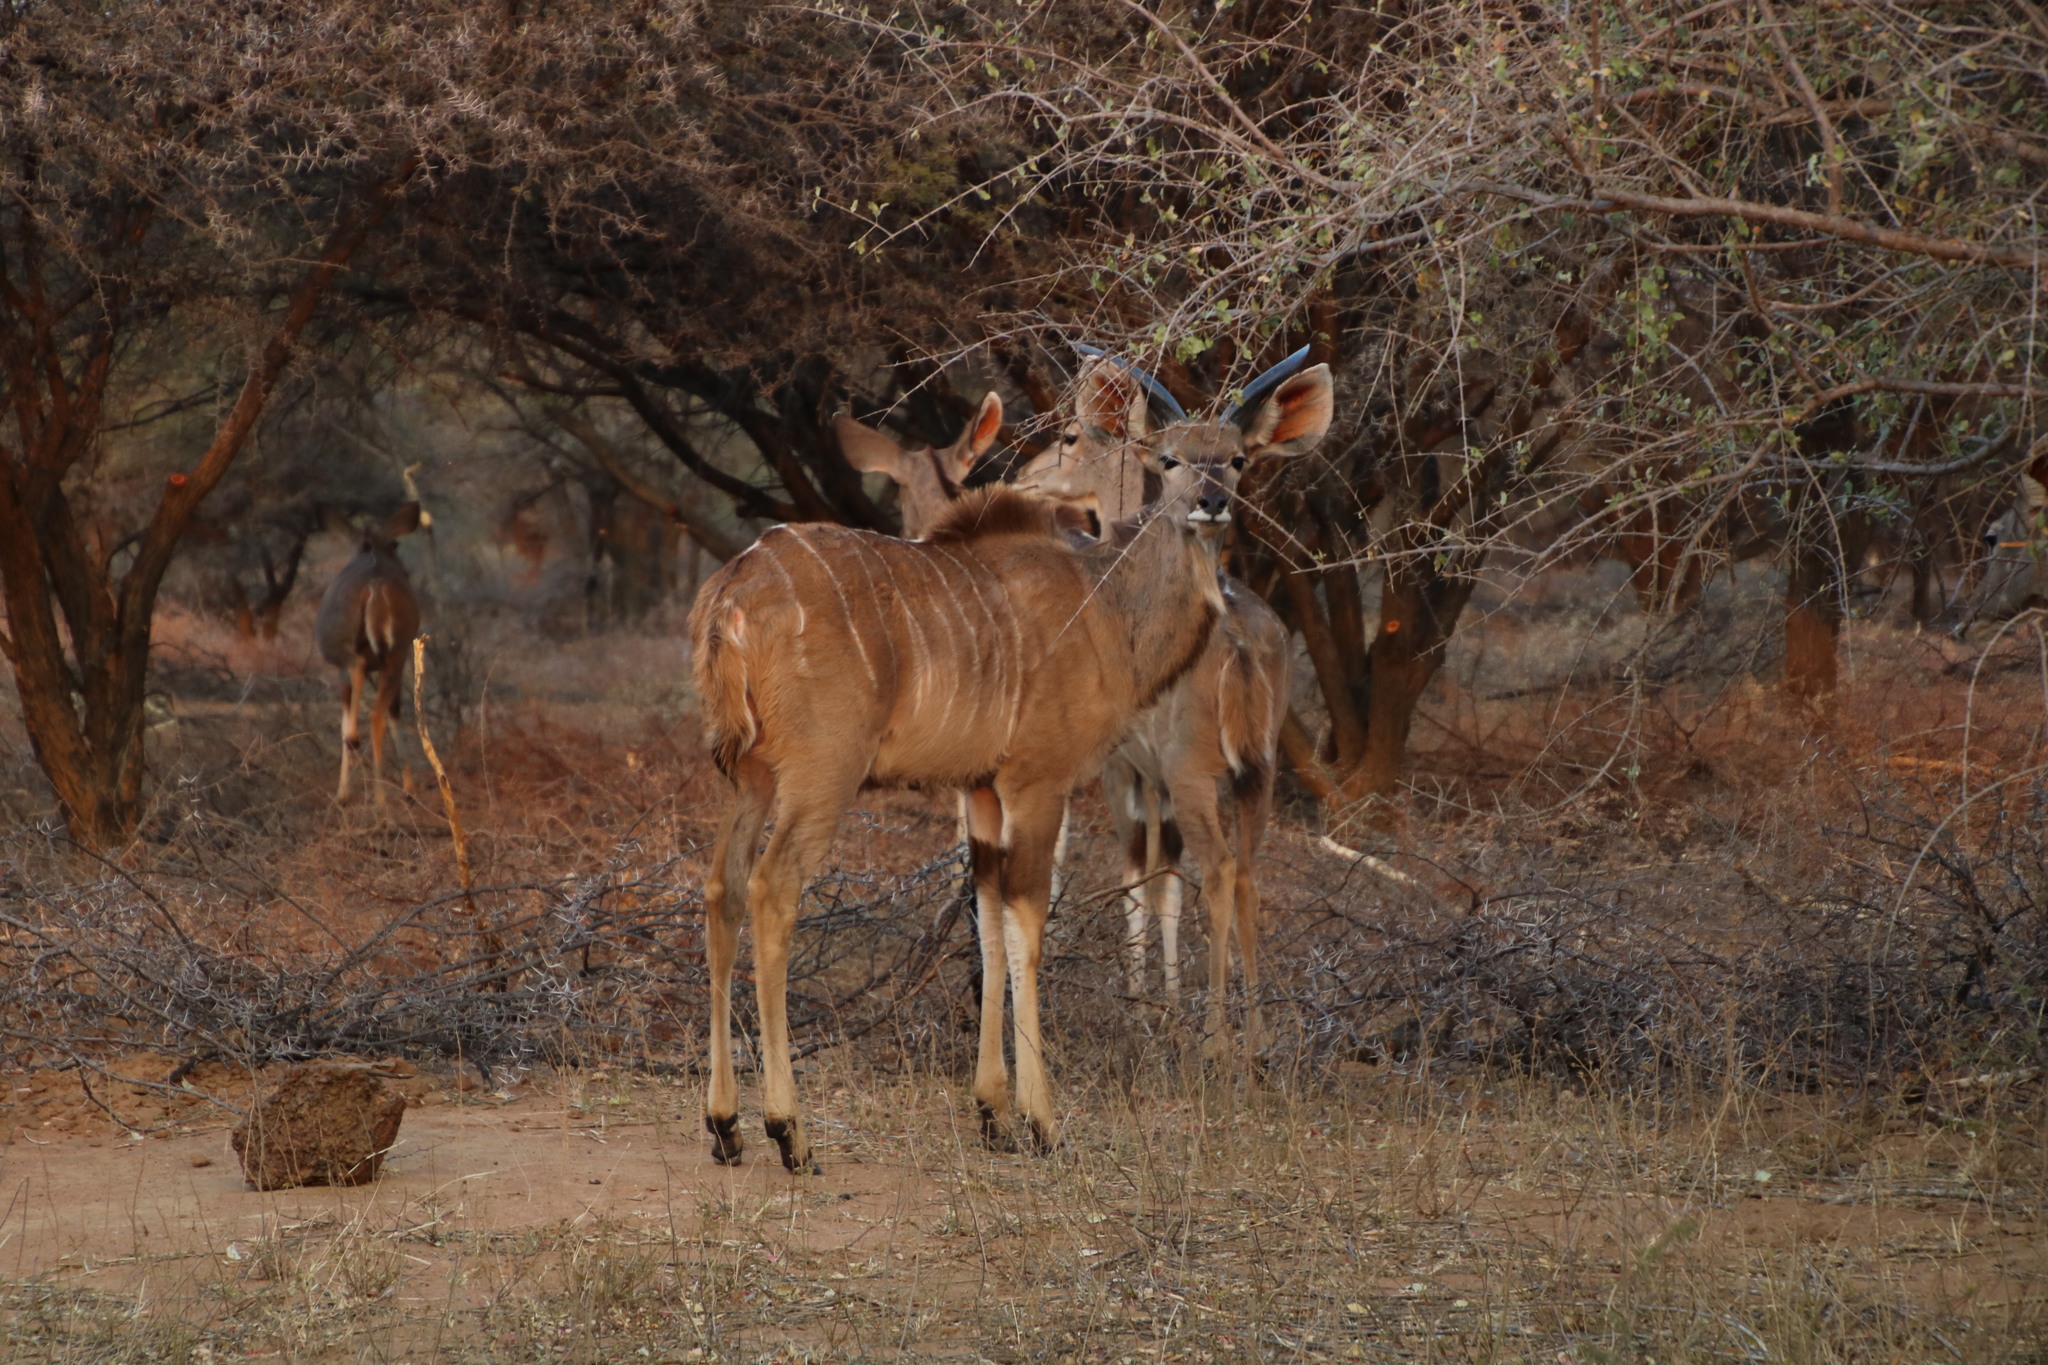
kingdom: Animalia
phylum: Chordata
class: Mammalia
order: Artiodactyla
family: Bovidae
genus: Tragelaphus
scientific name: Tragelaphus strepsiceros
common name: Greater kudu
